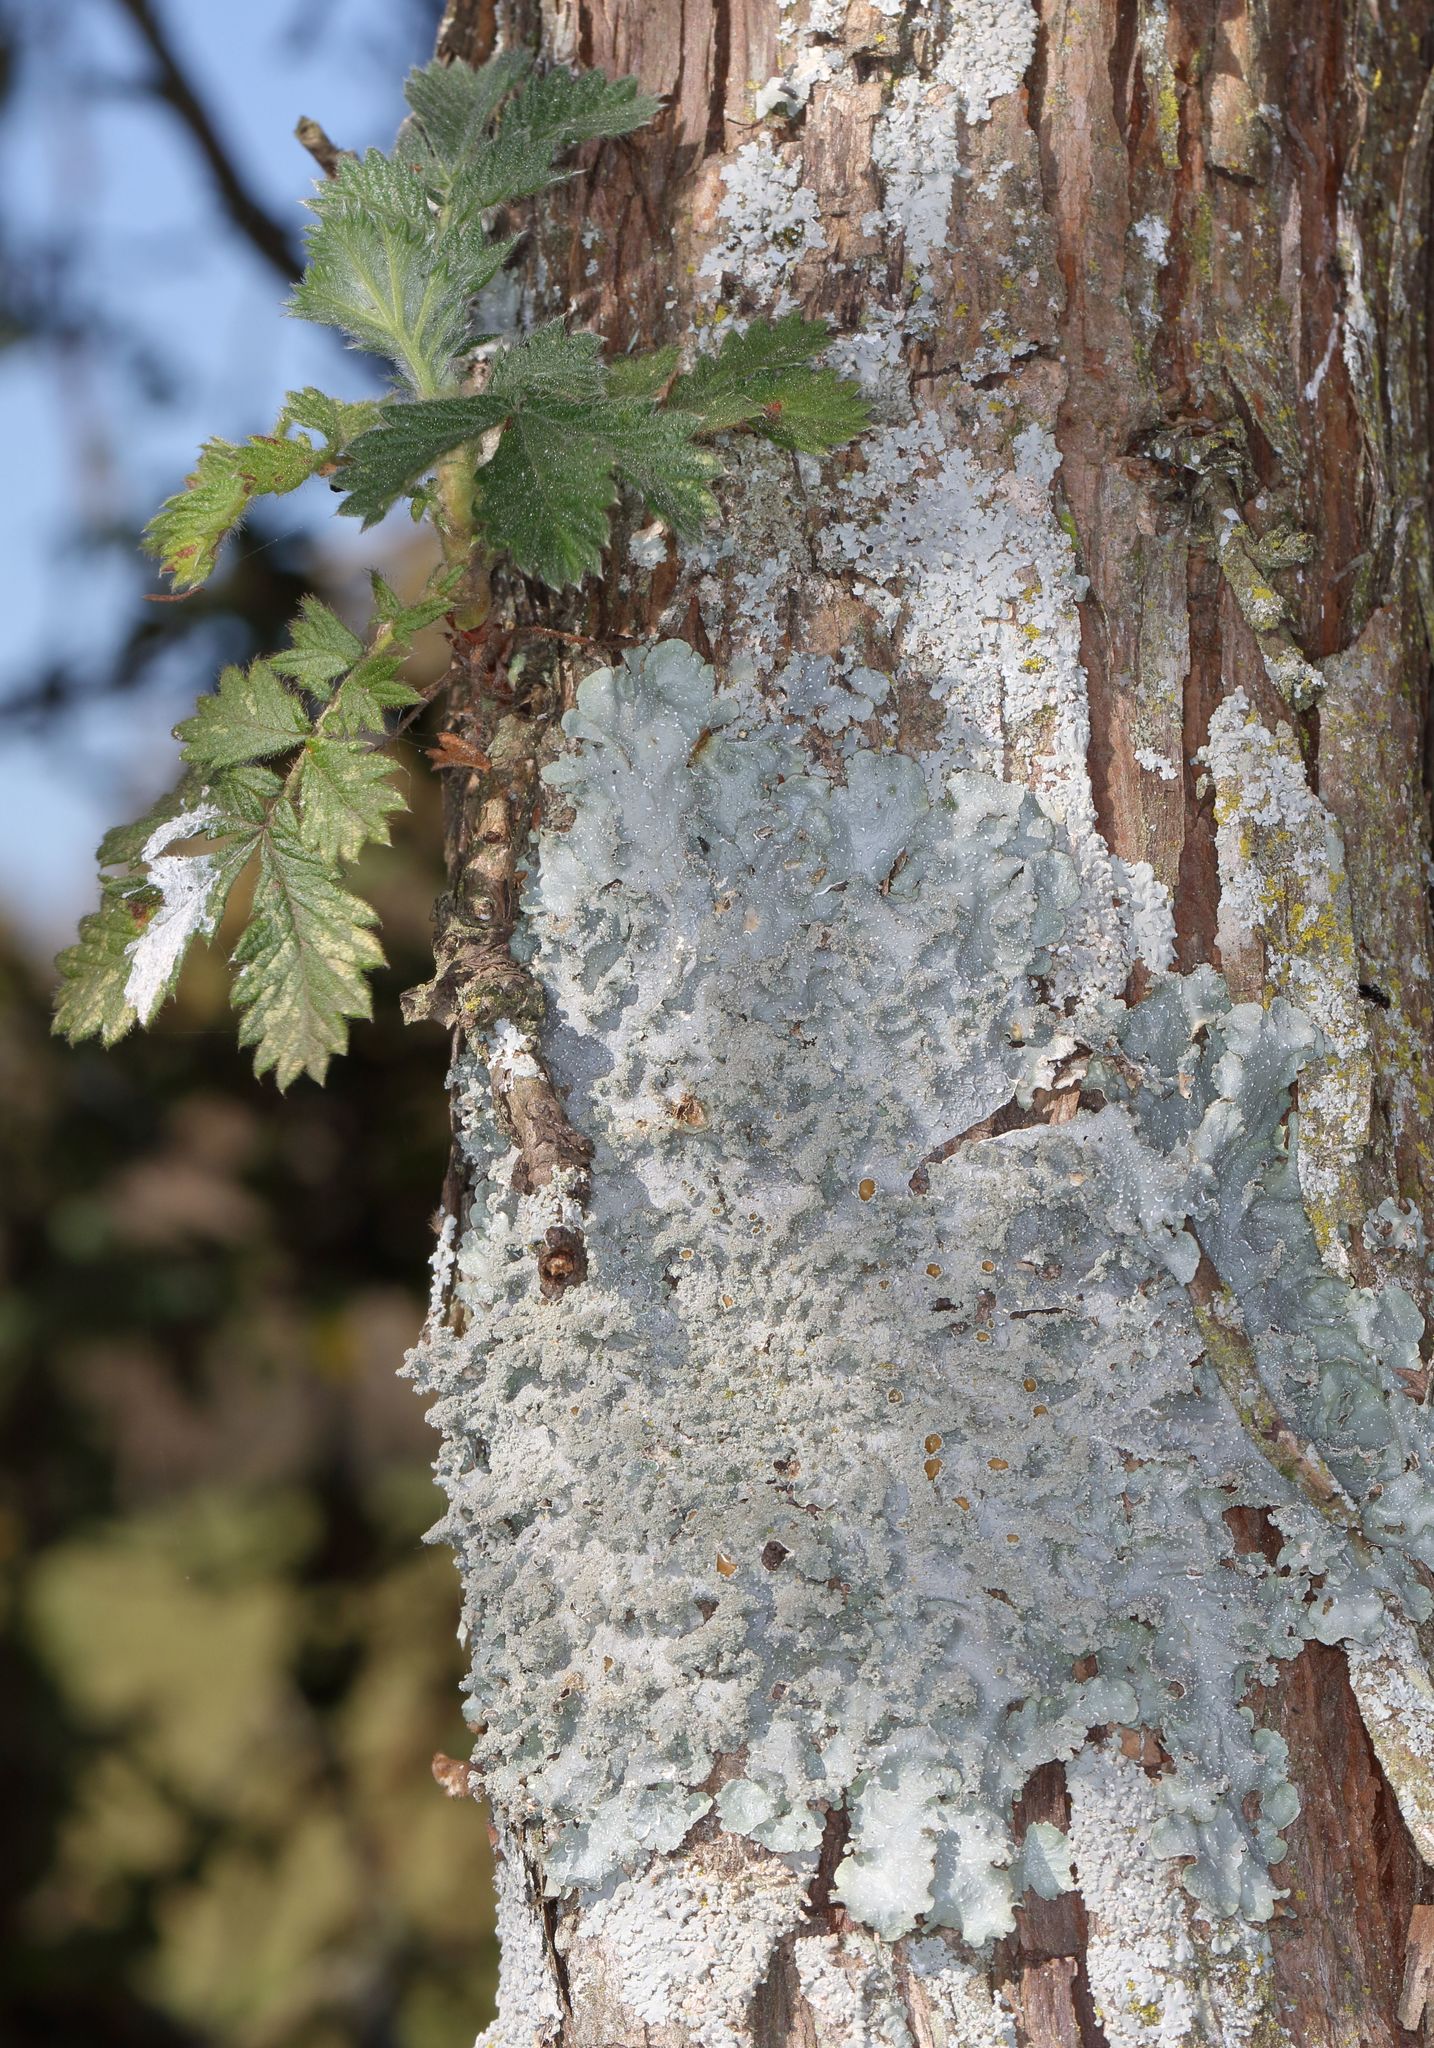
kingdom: Fungi
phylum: Ascomycota
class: Lecanoromycetes
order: Lecanorales
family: Parmeliaceae
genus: Punctelia
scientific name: Punctelia constantimontium
